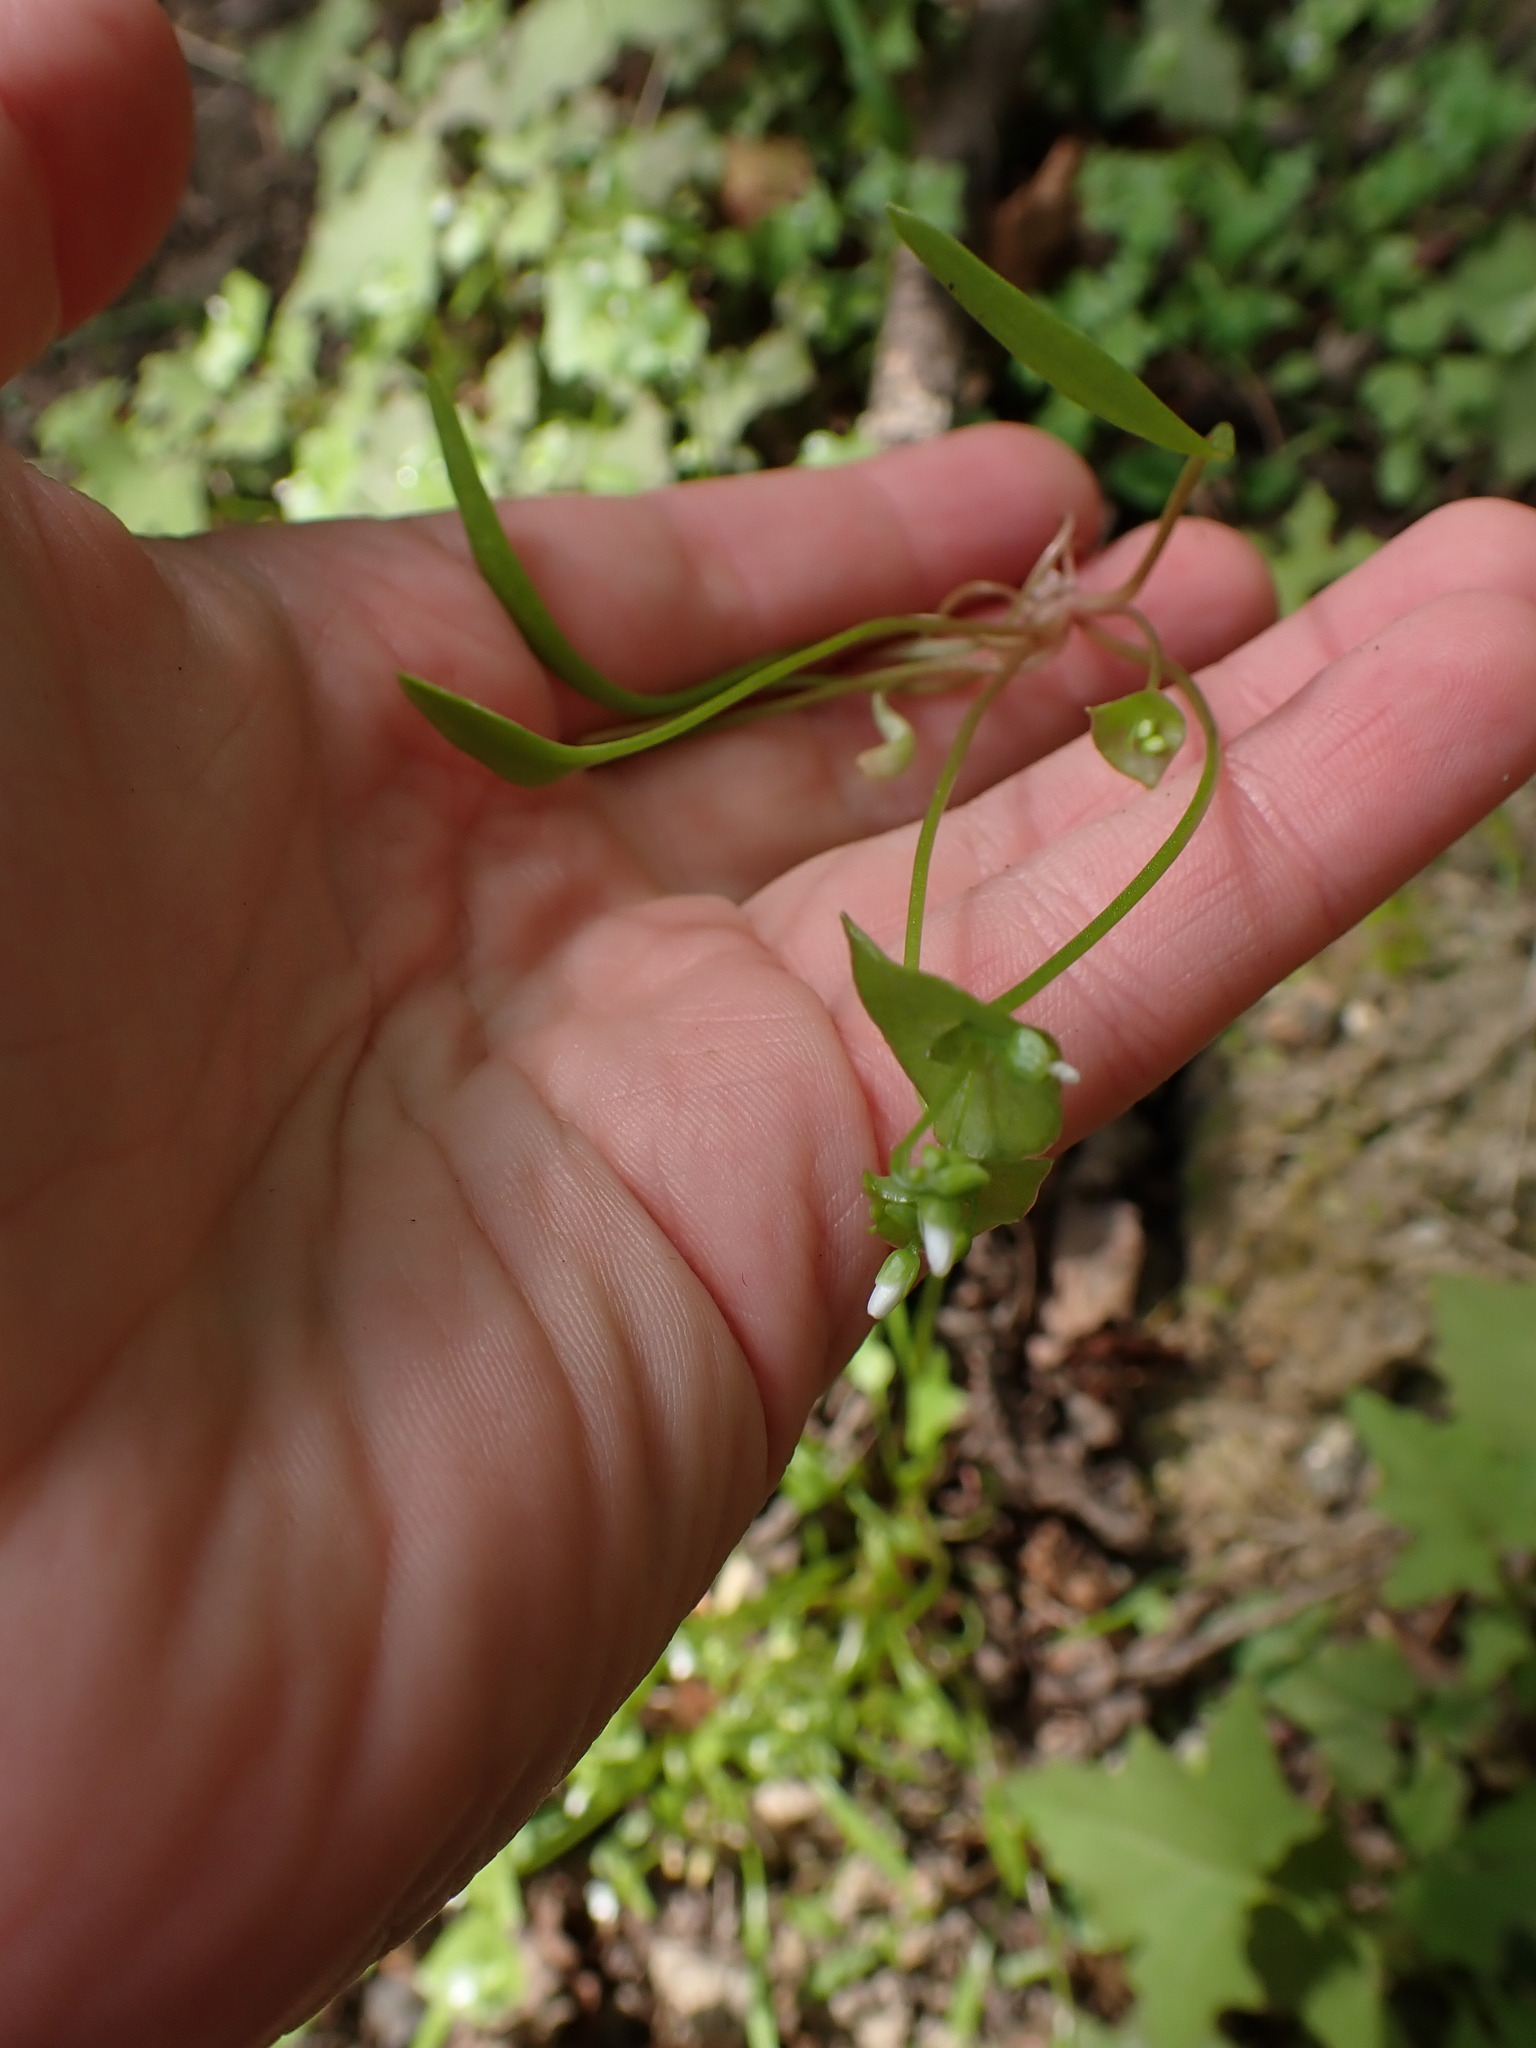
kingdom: Plantae
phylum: Tracheophyta
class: Magnoliopsida
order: Caryophyllales
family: Montiaceae
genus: Claytonia
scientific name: Claytonia parviflora
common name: Indian-lettuce
